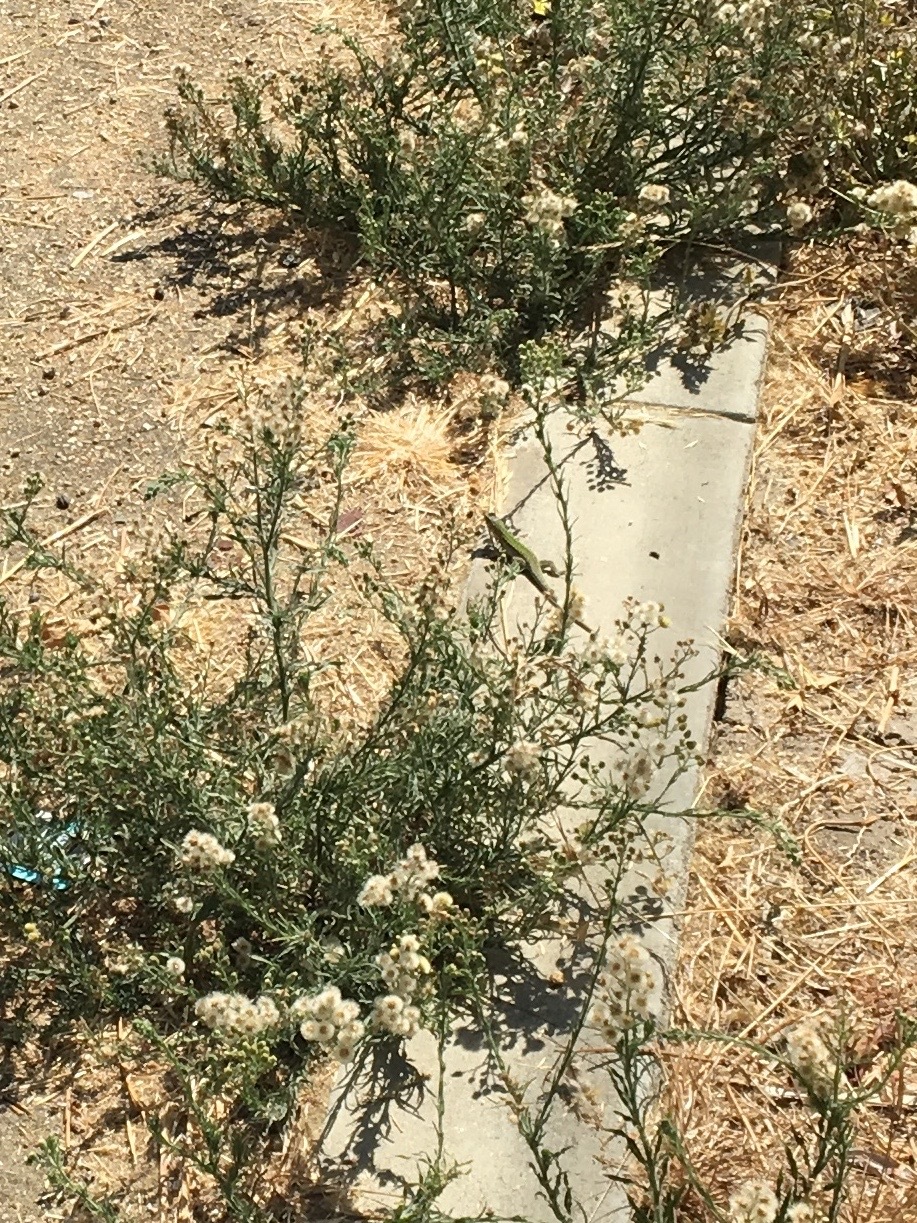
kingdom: Animalia
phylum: Chordata
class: Squamata
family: Lacertidae
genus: Podarcis
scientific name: Podarcis siculus
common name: Italian wall lizard
